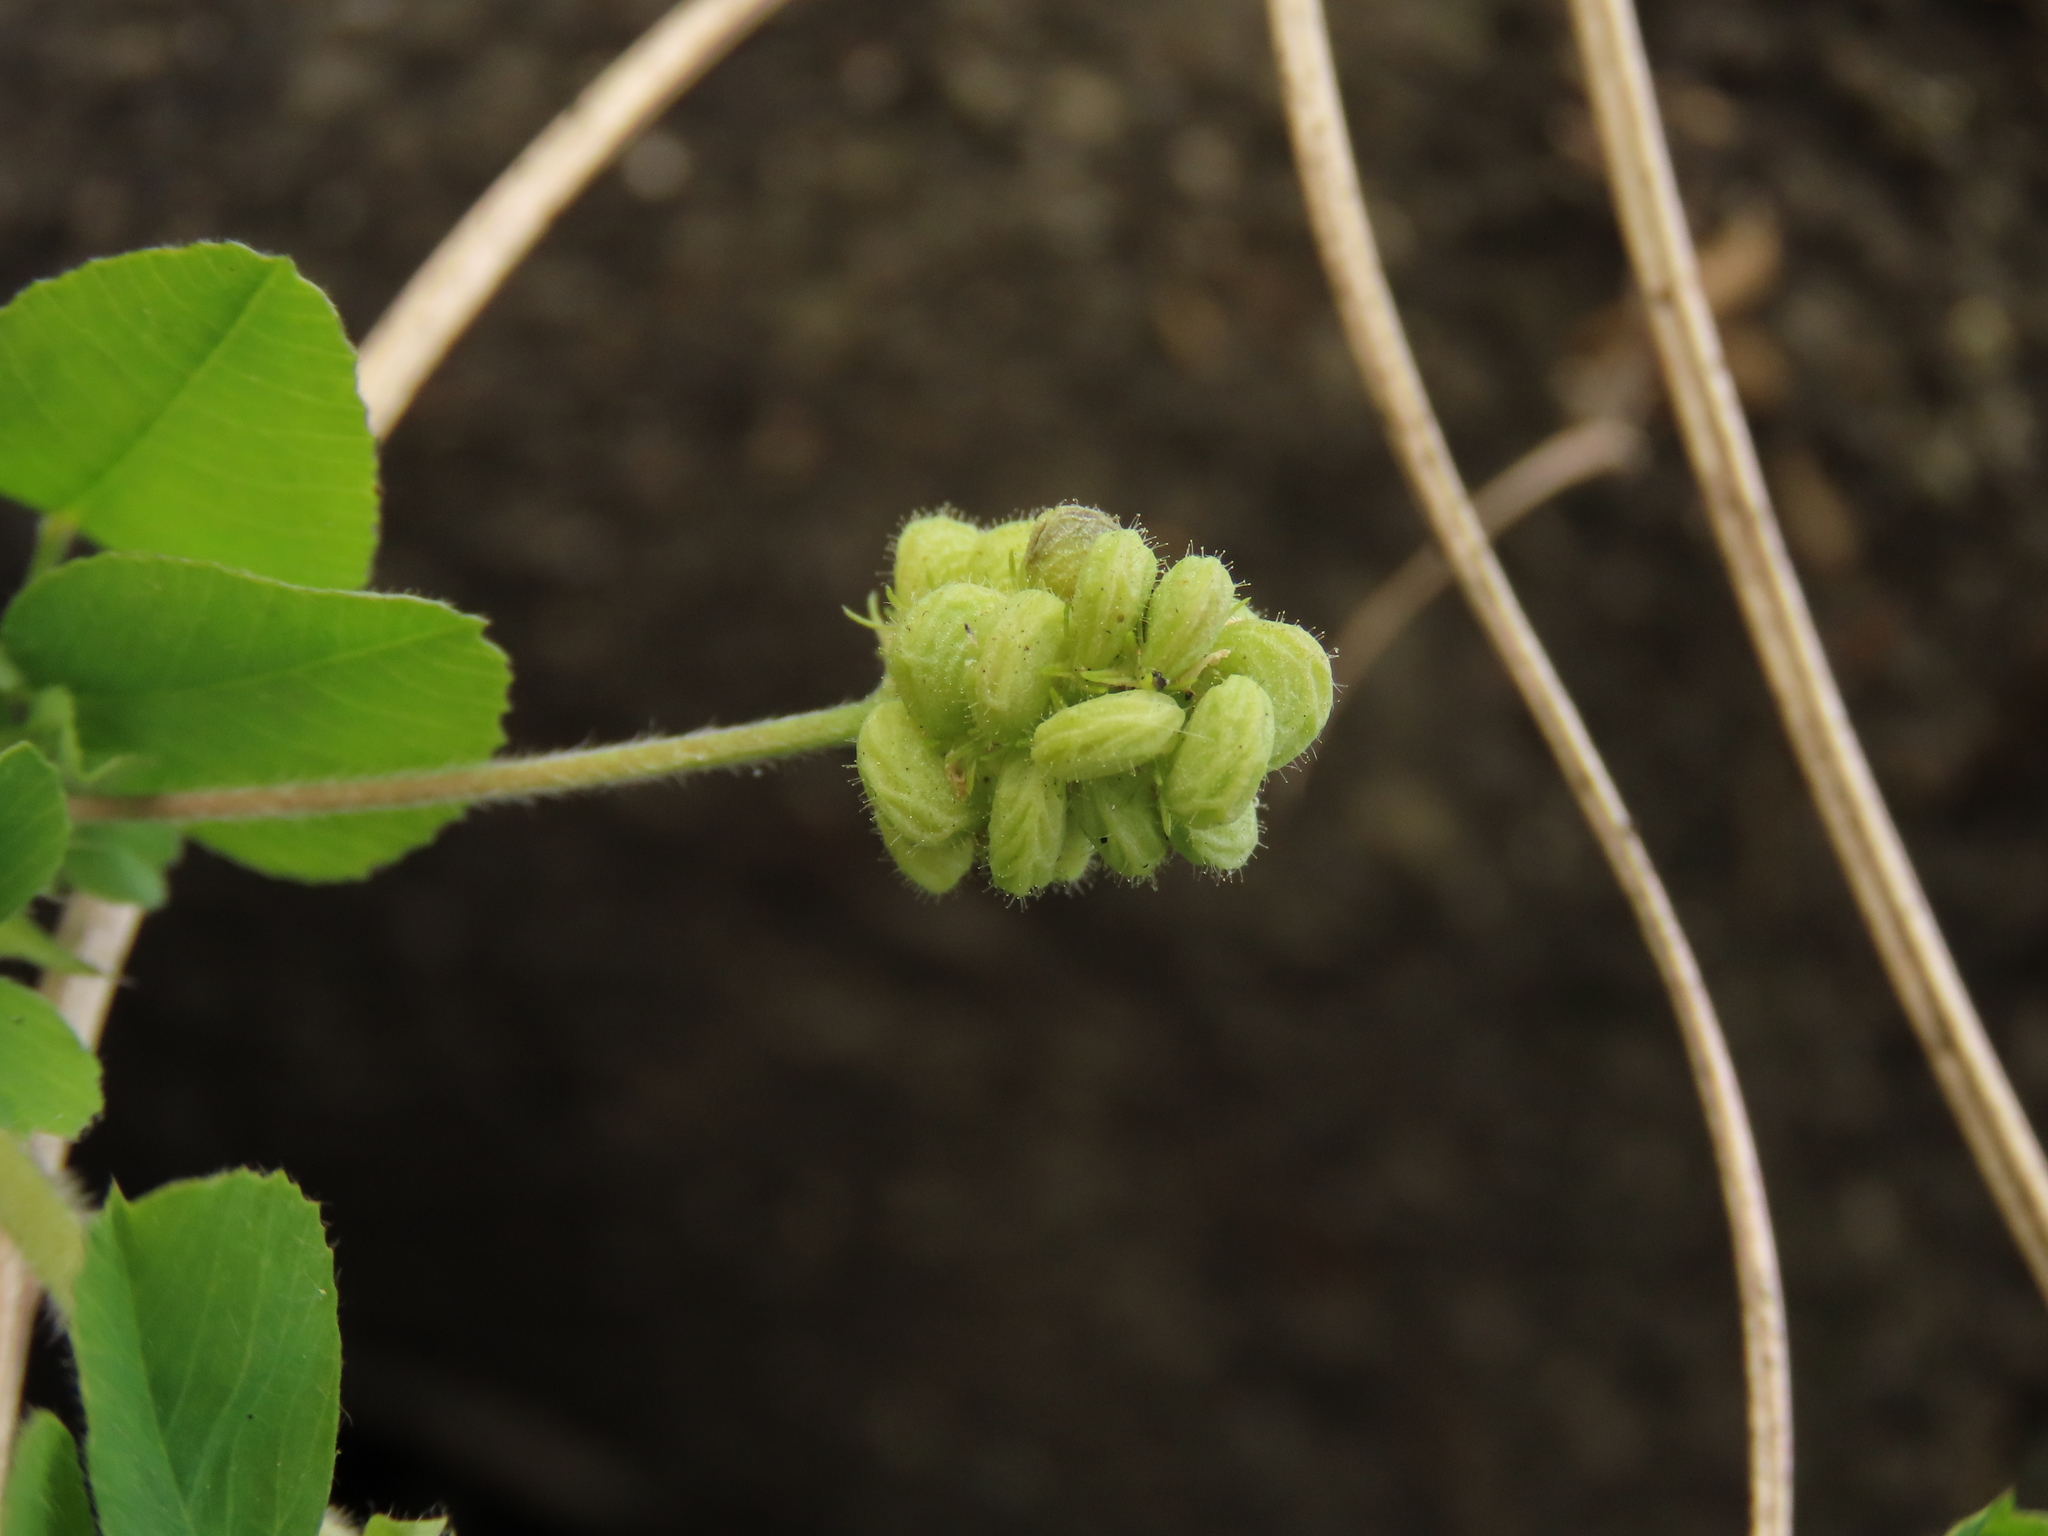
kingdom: Plantae
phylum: Tracheophyta
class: Magnoliopsida
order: Fabales
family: Fabaceae
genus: Medicago
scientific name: Medicago lupulina
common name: Black medick
